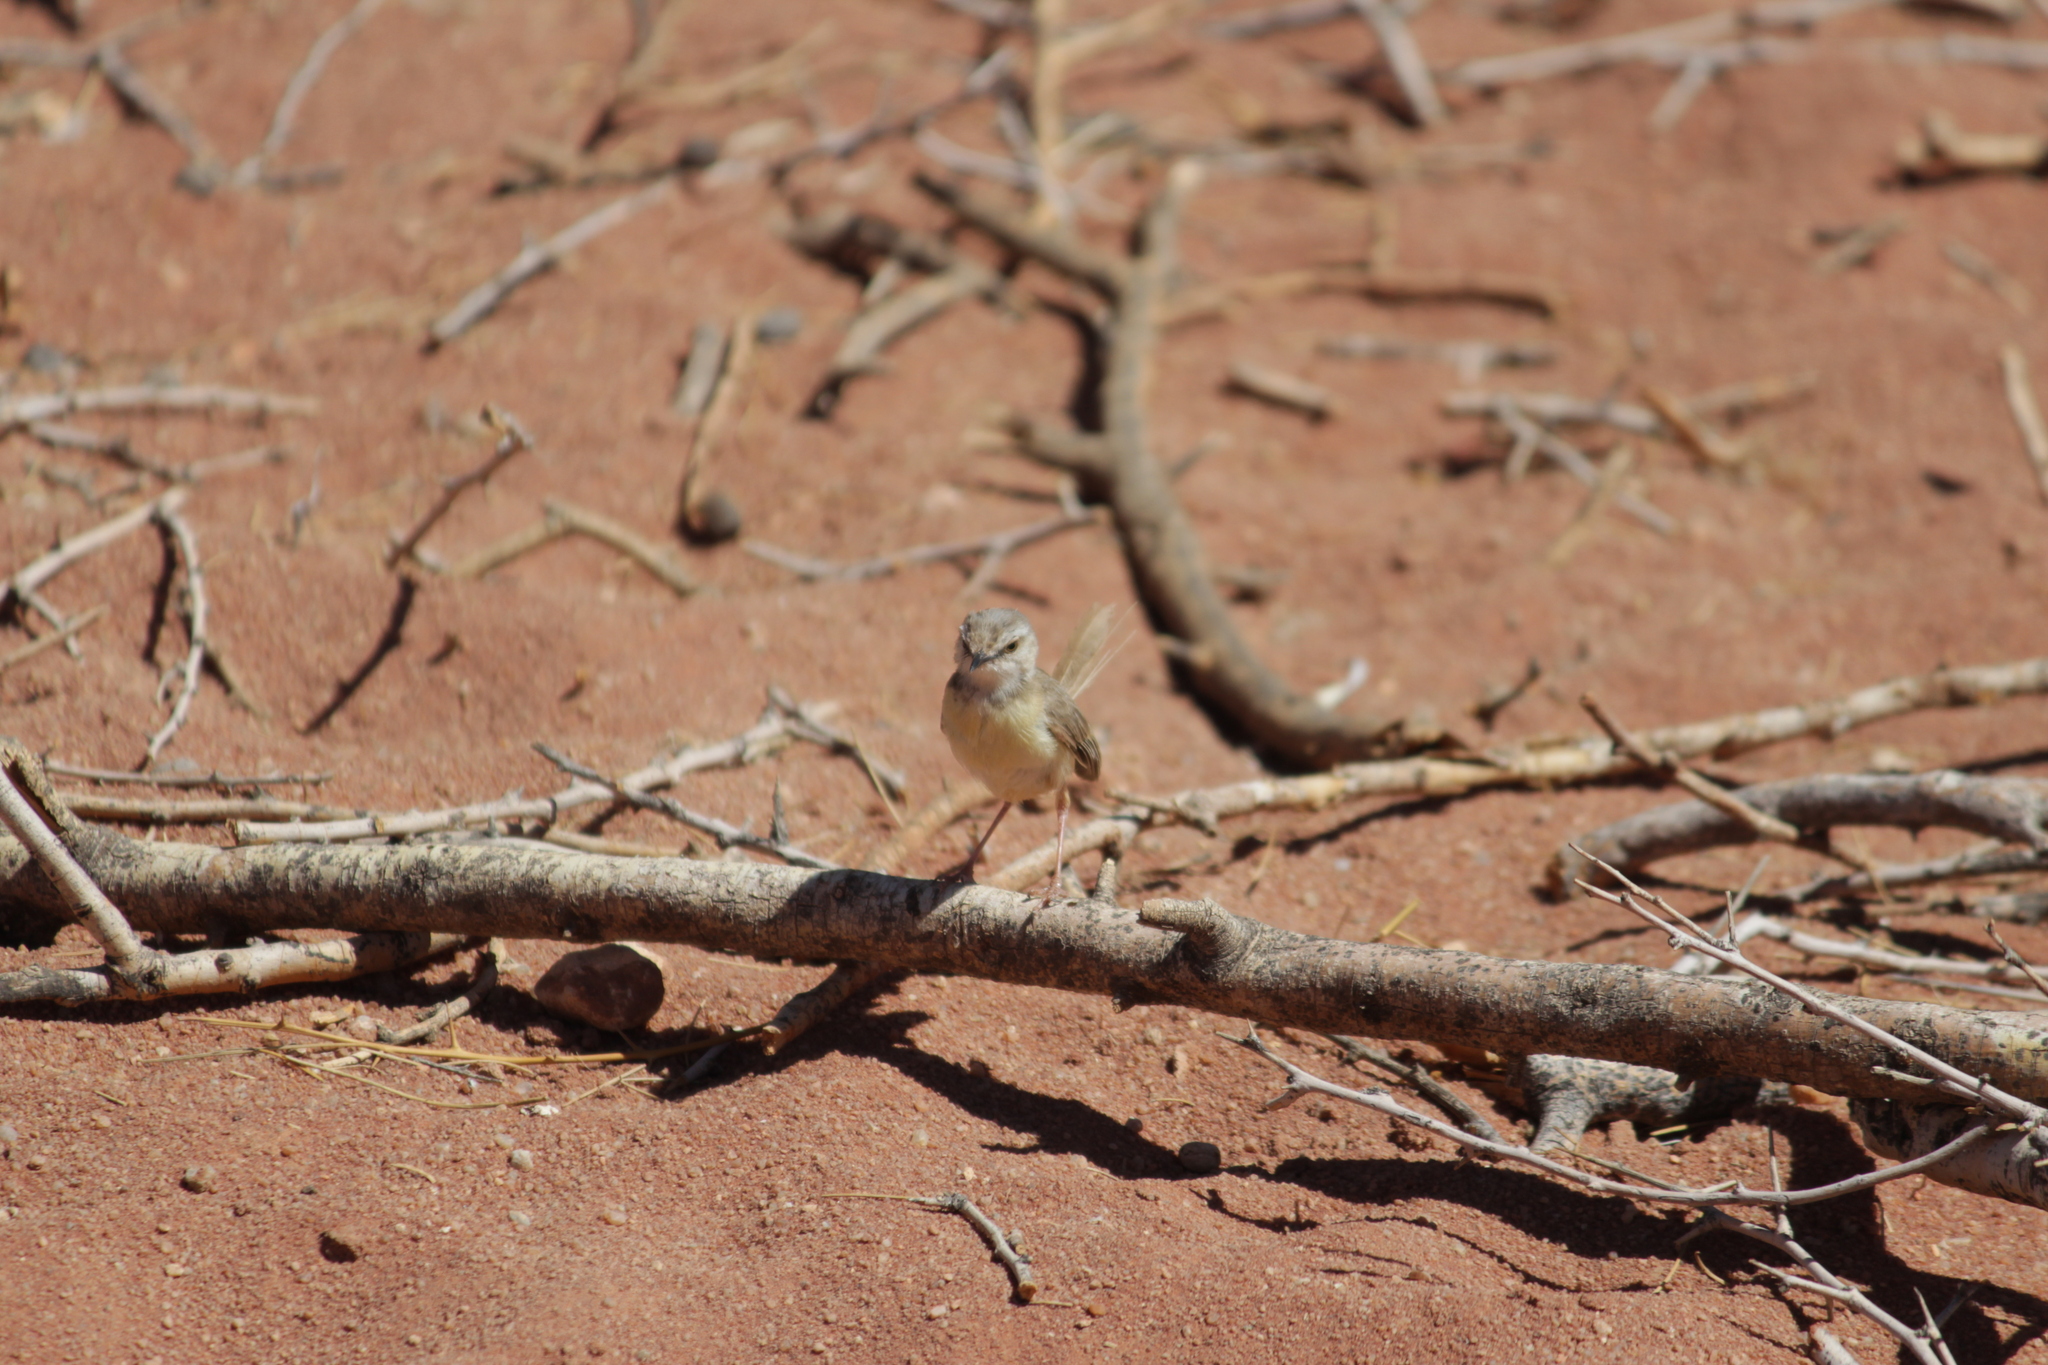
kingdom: Animalia
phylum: Chordata
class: Aves
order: Passeriformes
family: Cisticolidae
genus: Prinia
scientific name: Prinia flavicans
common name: Black-chested prinia
